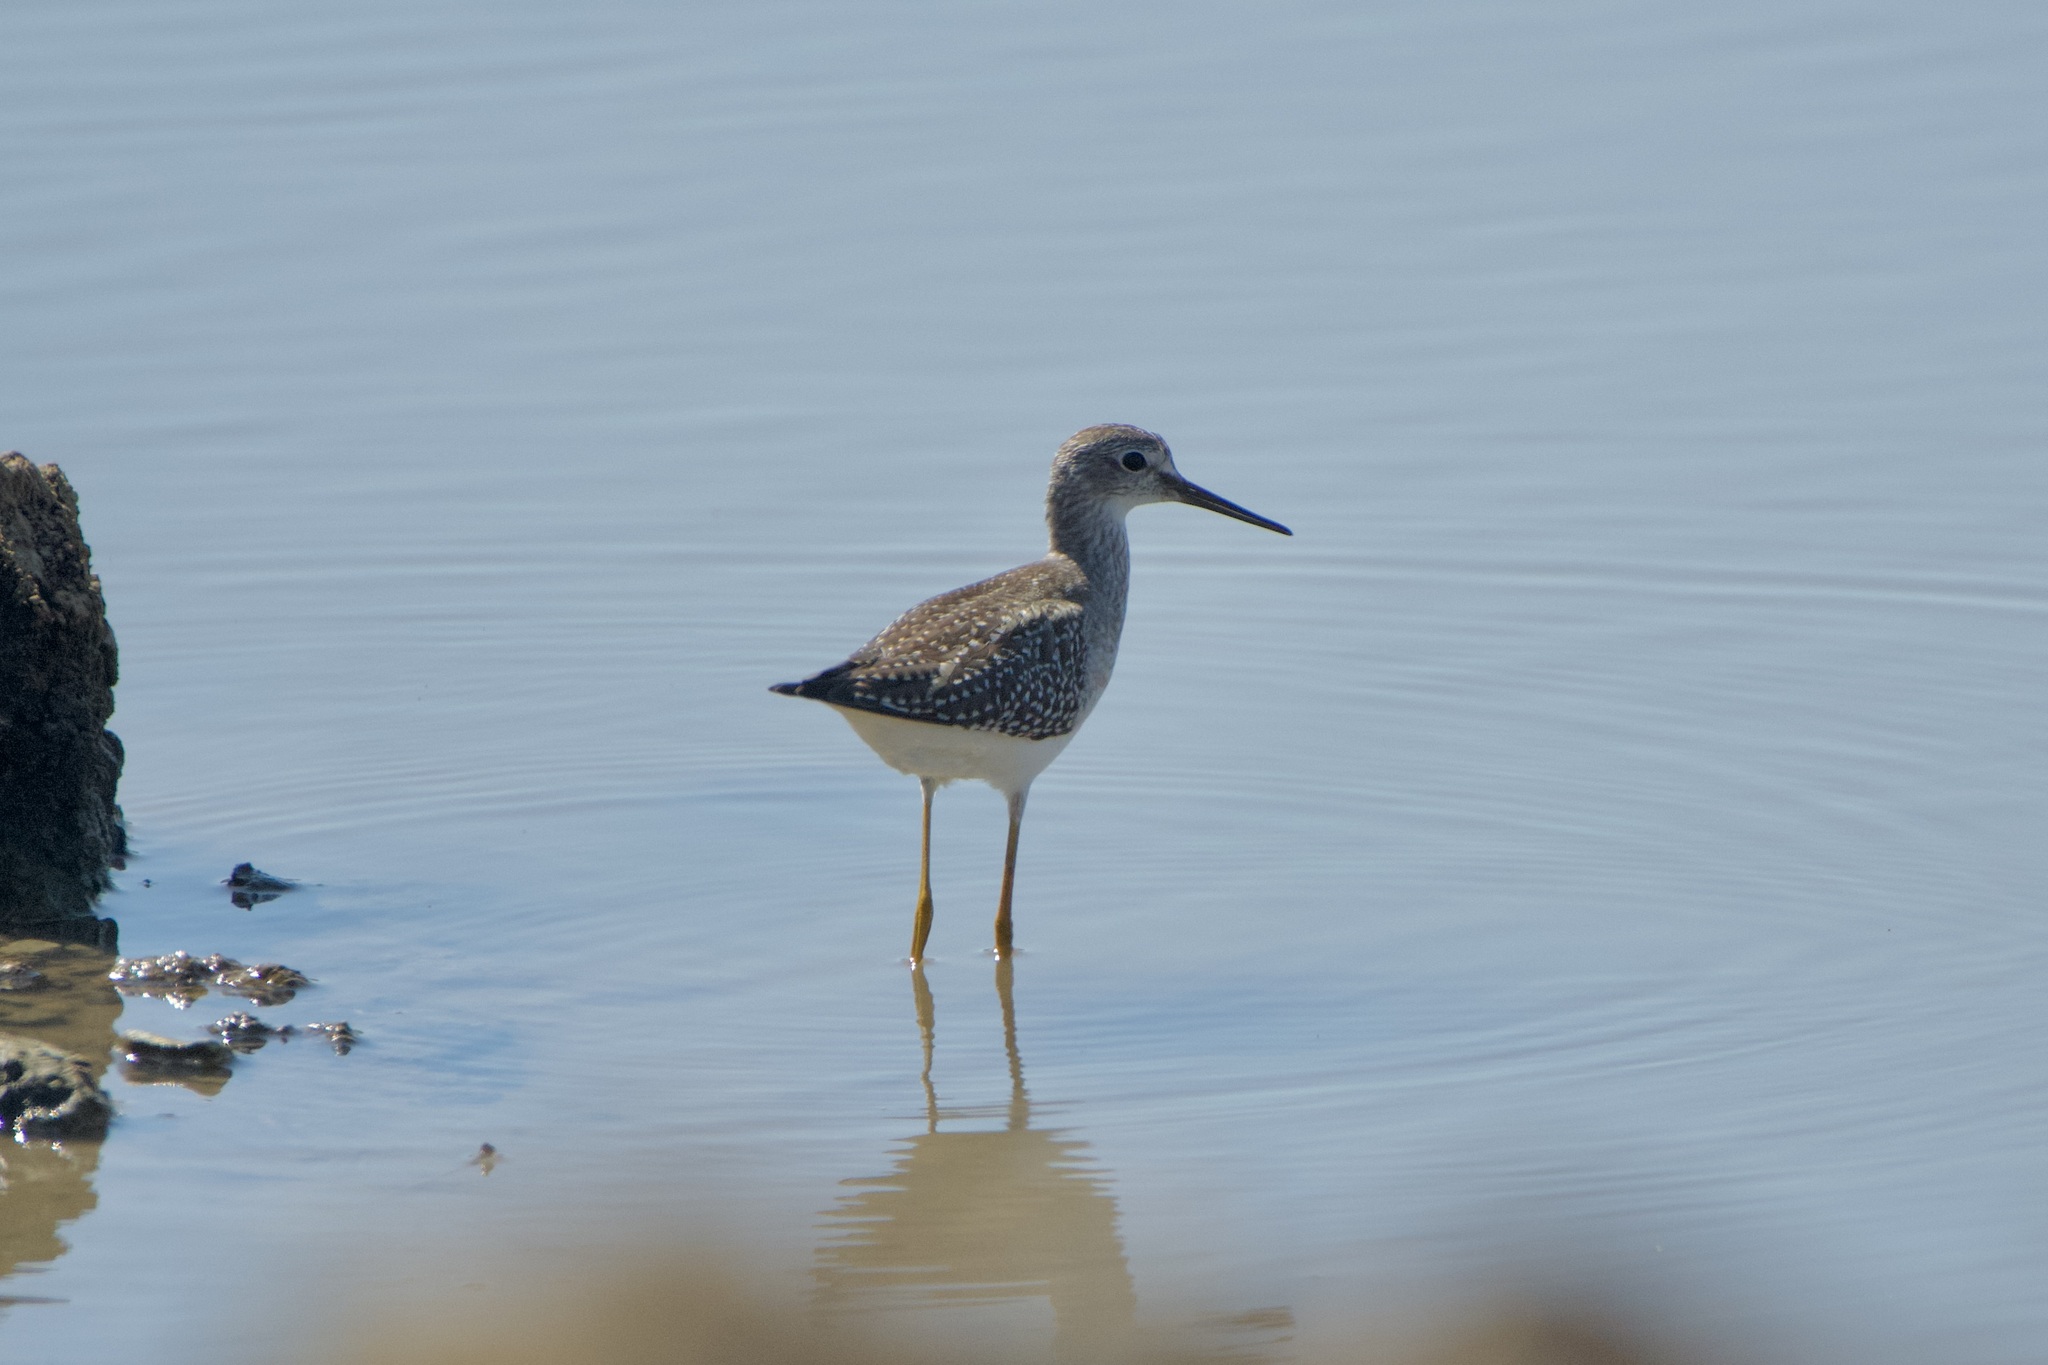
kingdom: Animalia
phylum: Chordata
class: Aves
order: Charadriiformes
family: Scolopacidae
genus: Tringa
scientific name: Tringa flavipes
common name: Lesser yellowlegs
